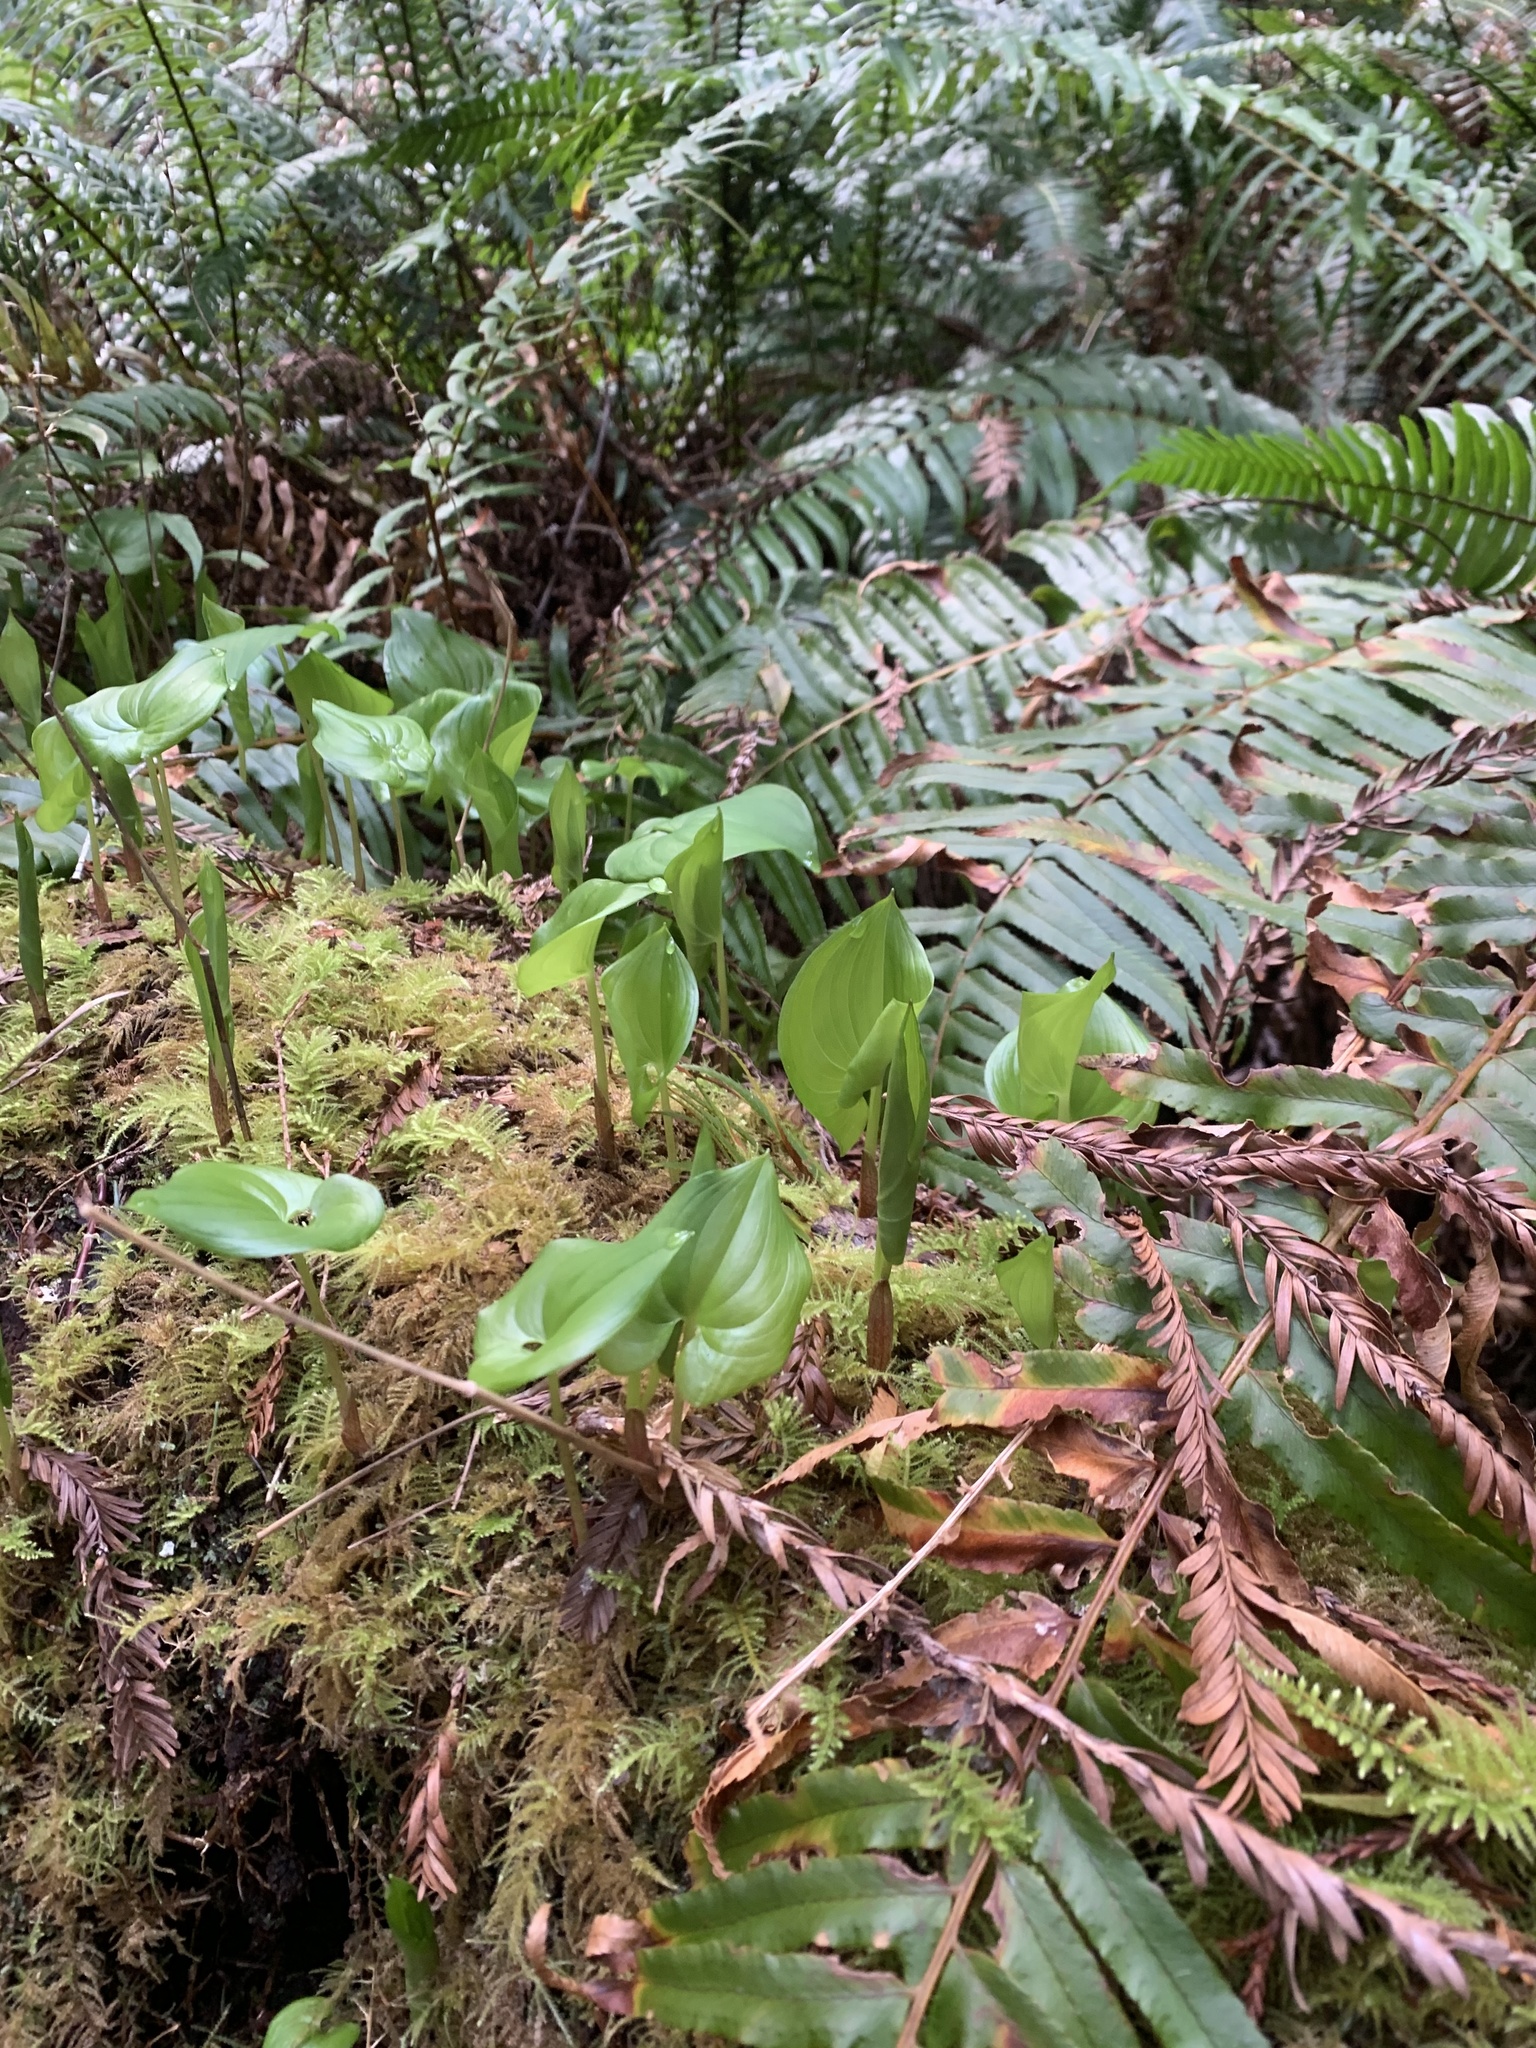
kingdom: Plantae
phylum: Tracheophyta
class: Liliopsida
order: Asparagales
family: Asparagaceae
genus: Maianthemum
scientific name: Maianthemum dilatatum
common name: False lily-of-the-valley
